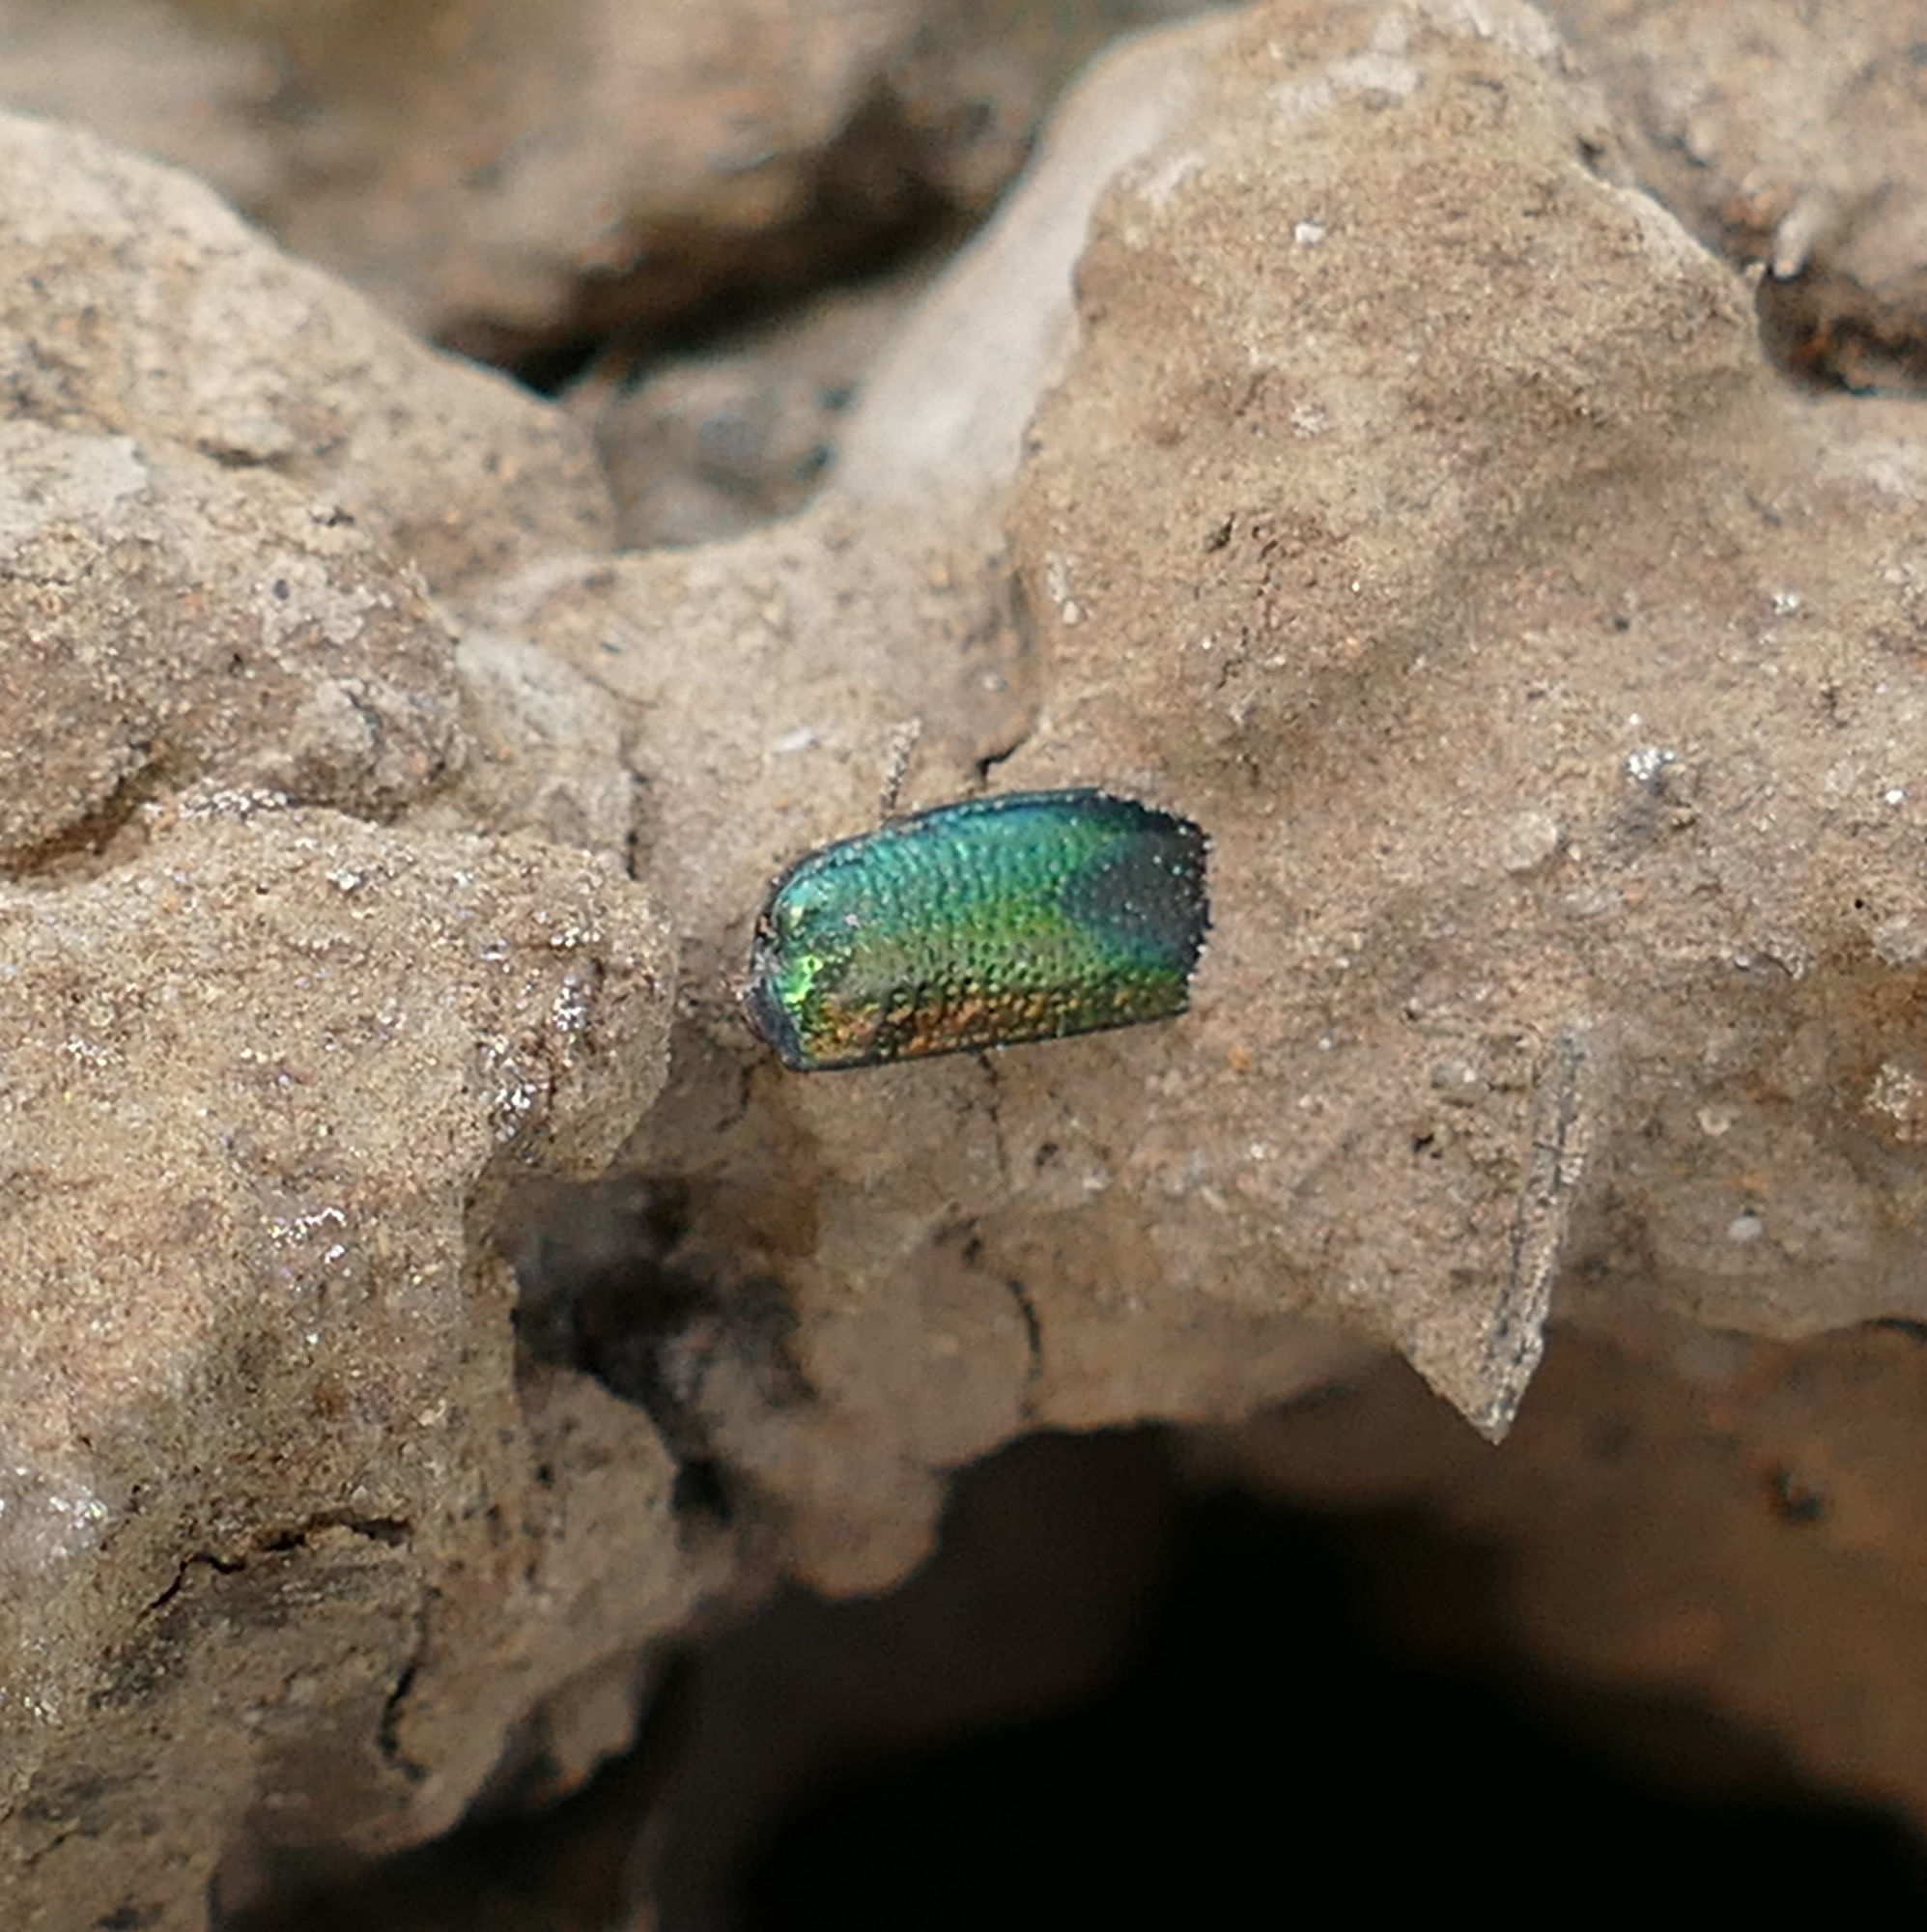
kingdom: Animalia
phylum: Arthropoda
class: Insecta
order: Coleoptera
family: Carabidae
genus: Tetracha
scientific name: Tetracha carolina
